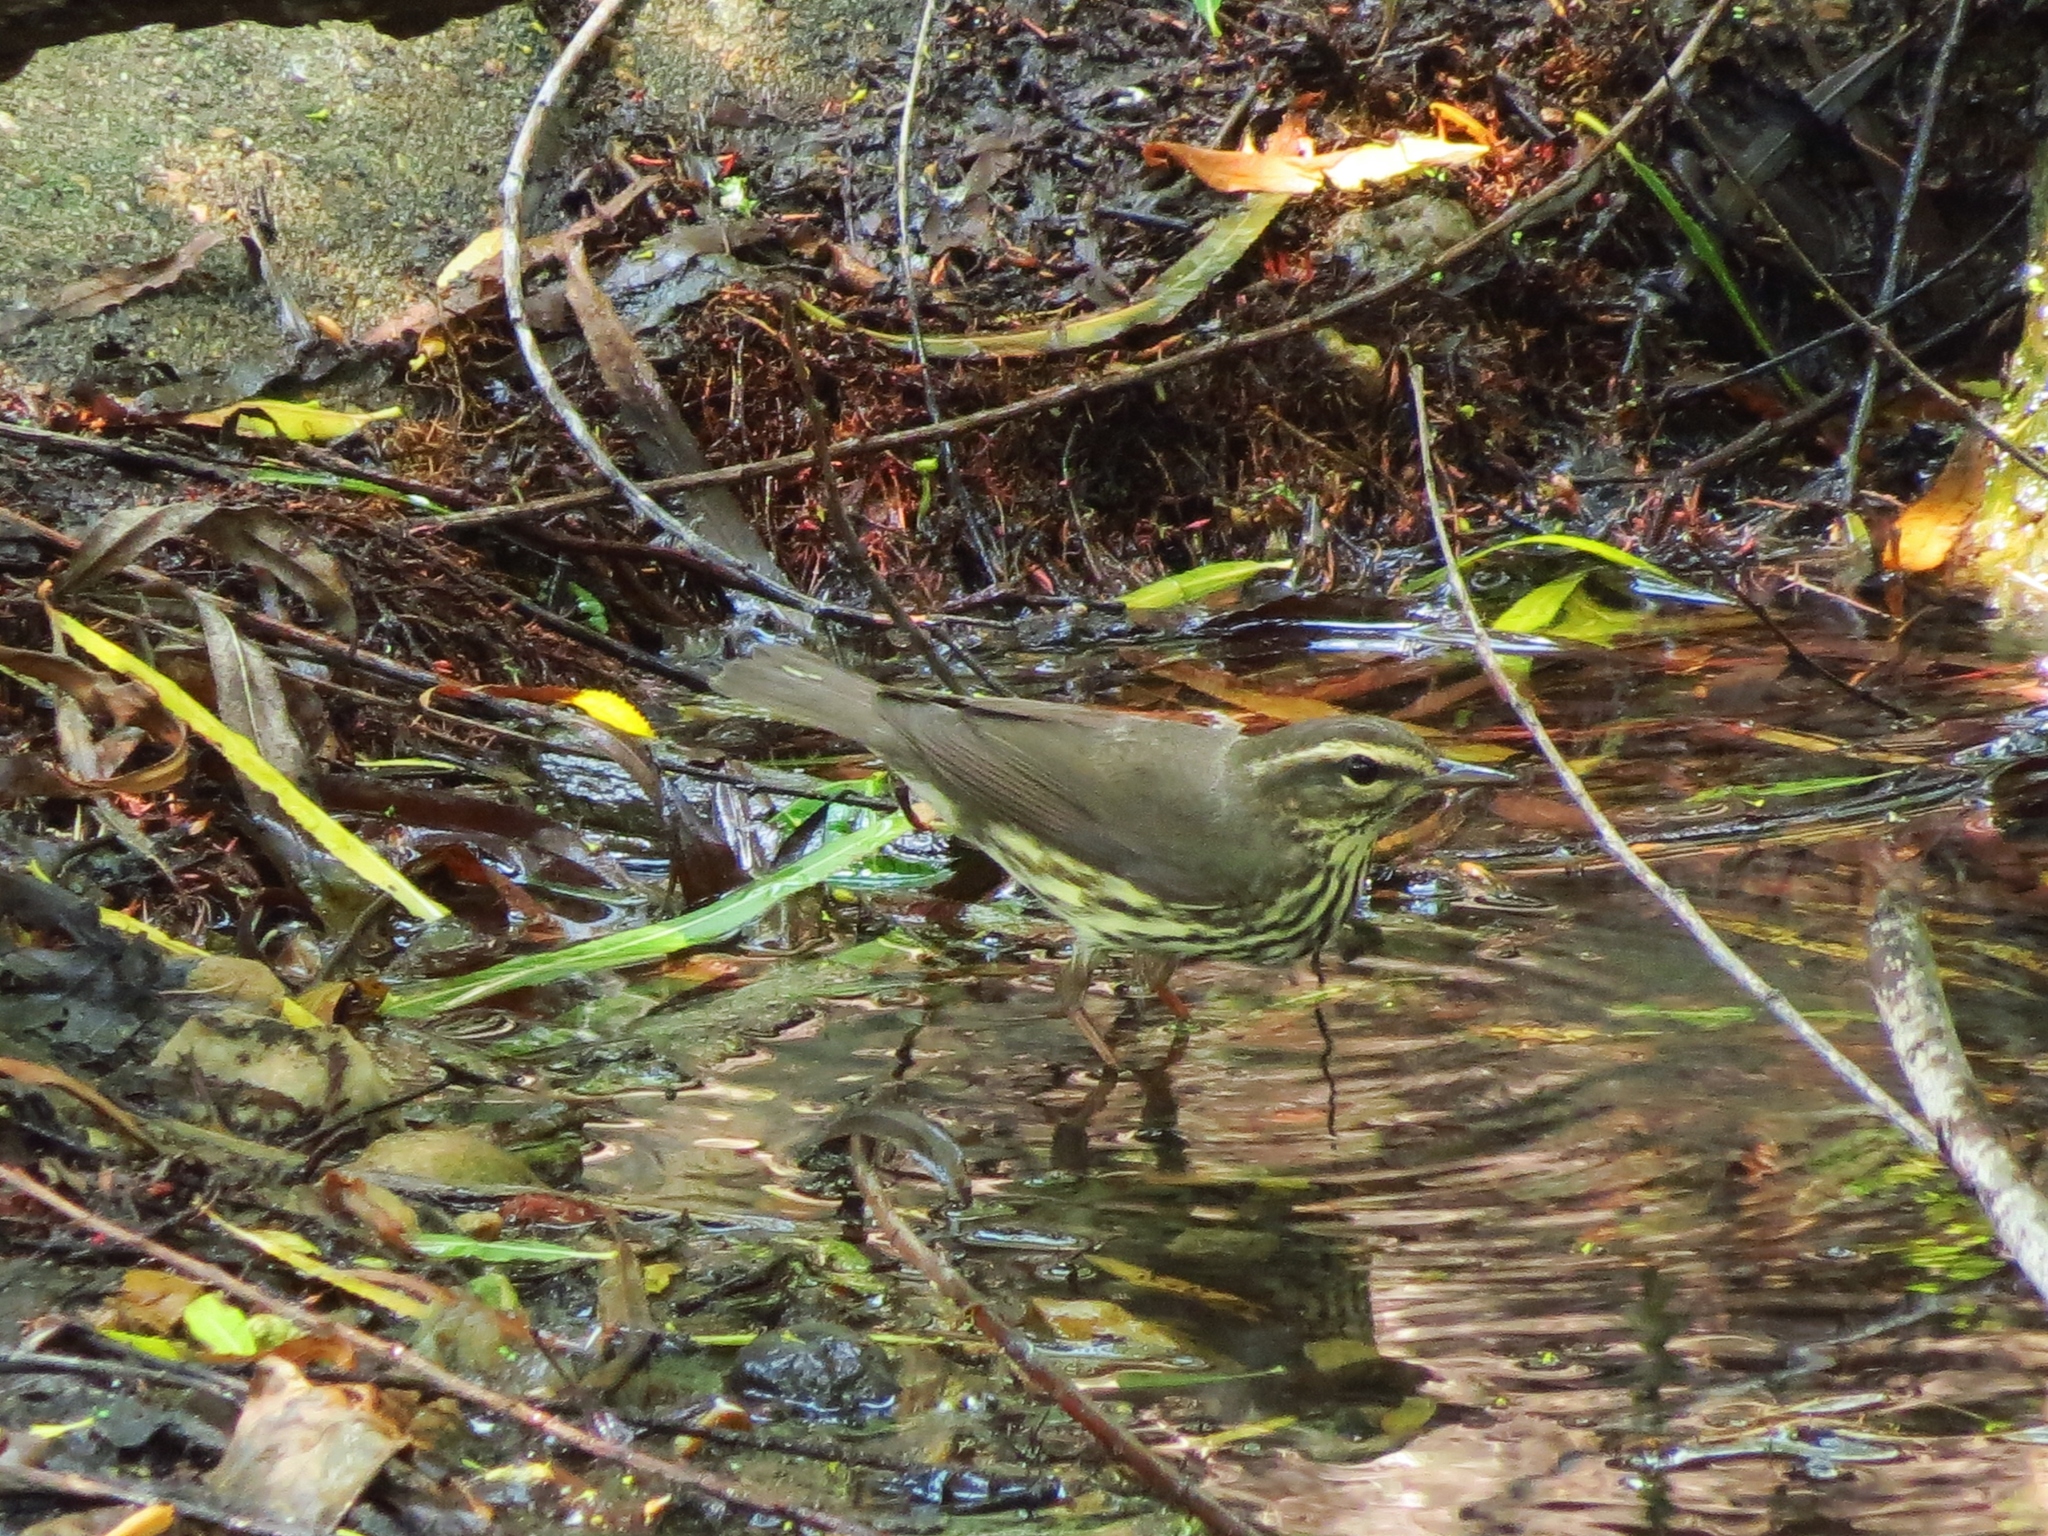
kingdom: Animalia
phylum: Chordata
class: Aves
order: Passeriformes
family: Parulidae
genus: Parkesia
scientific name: Parkesia noveboracensis
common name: Northern waterthrush
